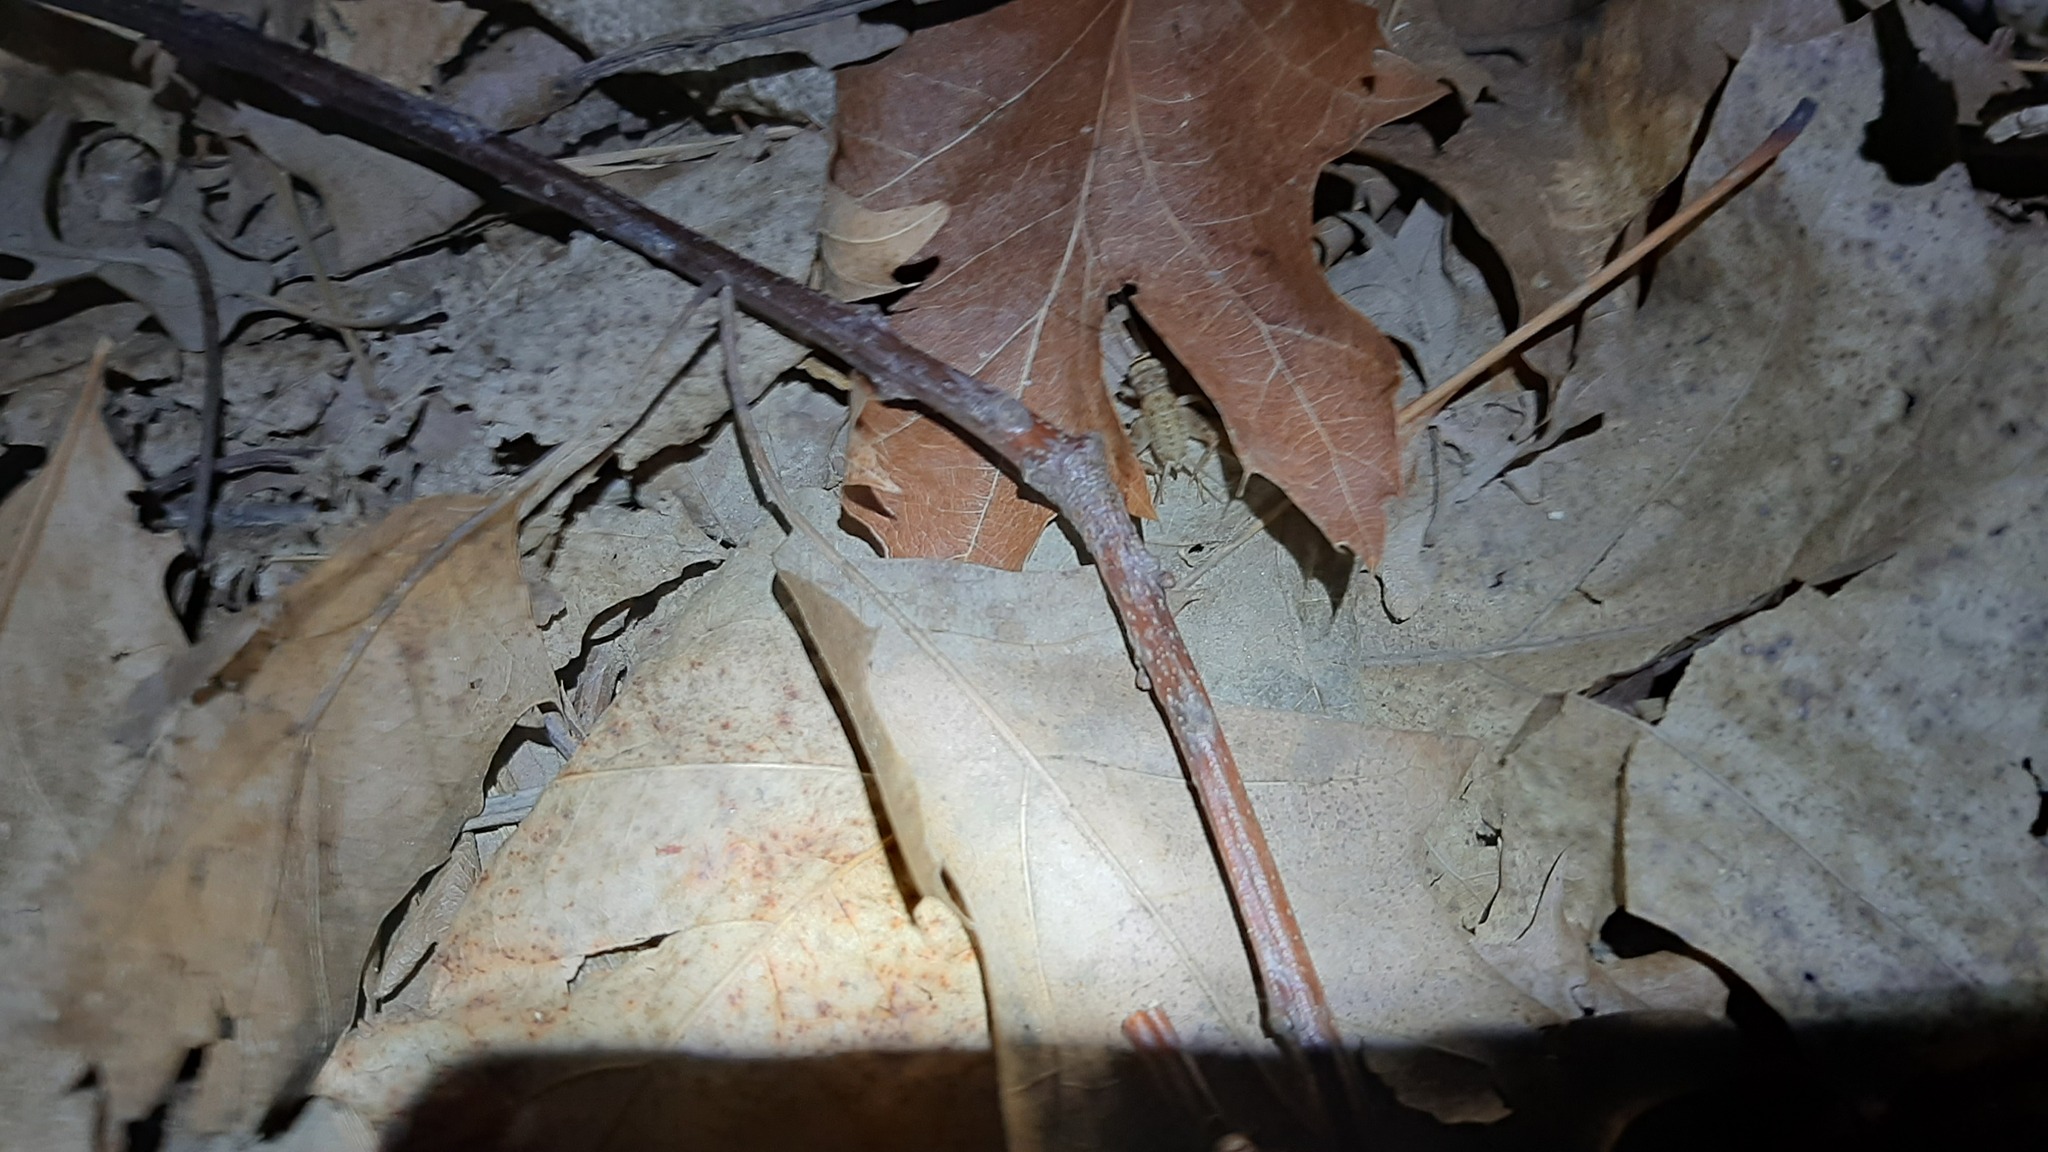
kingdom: Animalia
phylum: Arthropoda
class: Insecta
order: Orthoptera
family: Gryllidae
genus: Eumodicogryllus
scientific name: Eumodicogryllus bordigalensis
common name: Bordeaux cricket
